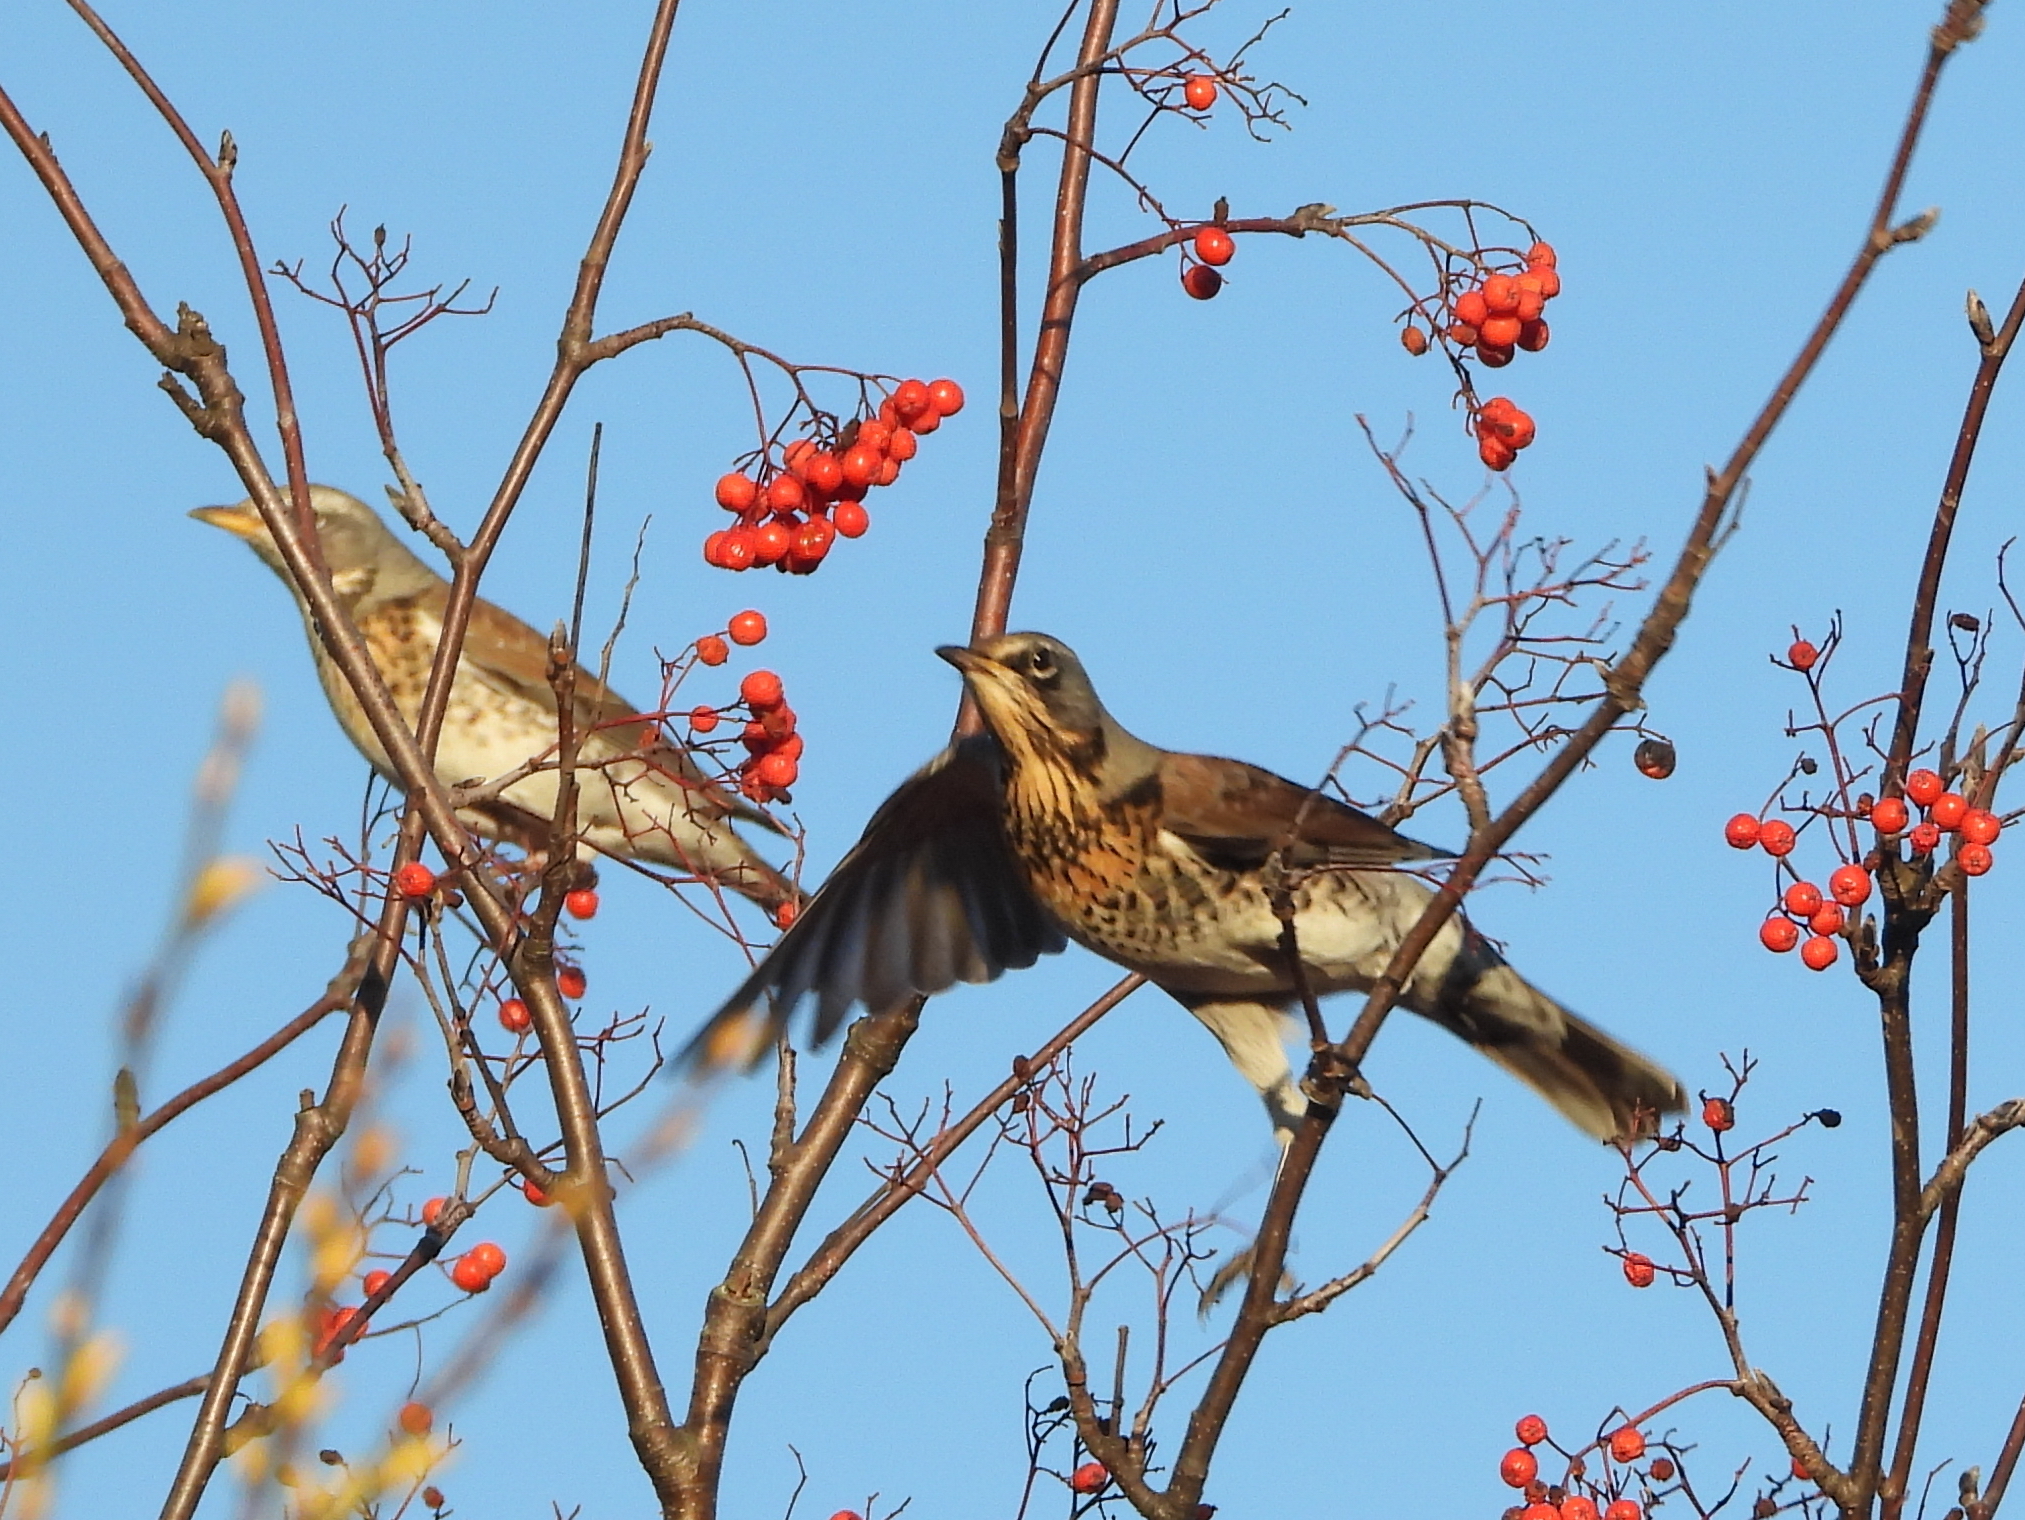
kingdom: Animalia
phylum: Chordata
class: Aves
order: Passeriformes
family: Turdidae
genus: Turdus
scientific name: Turdus pilaris
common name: Fieldfare
